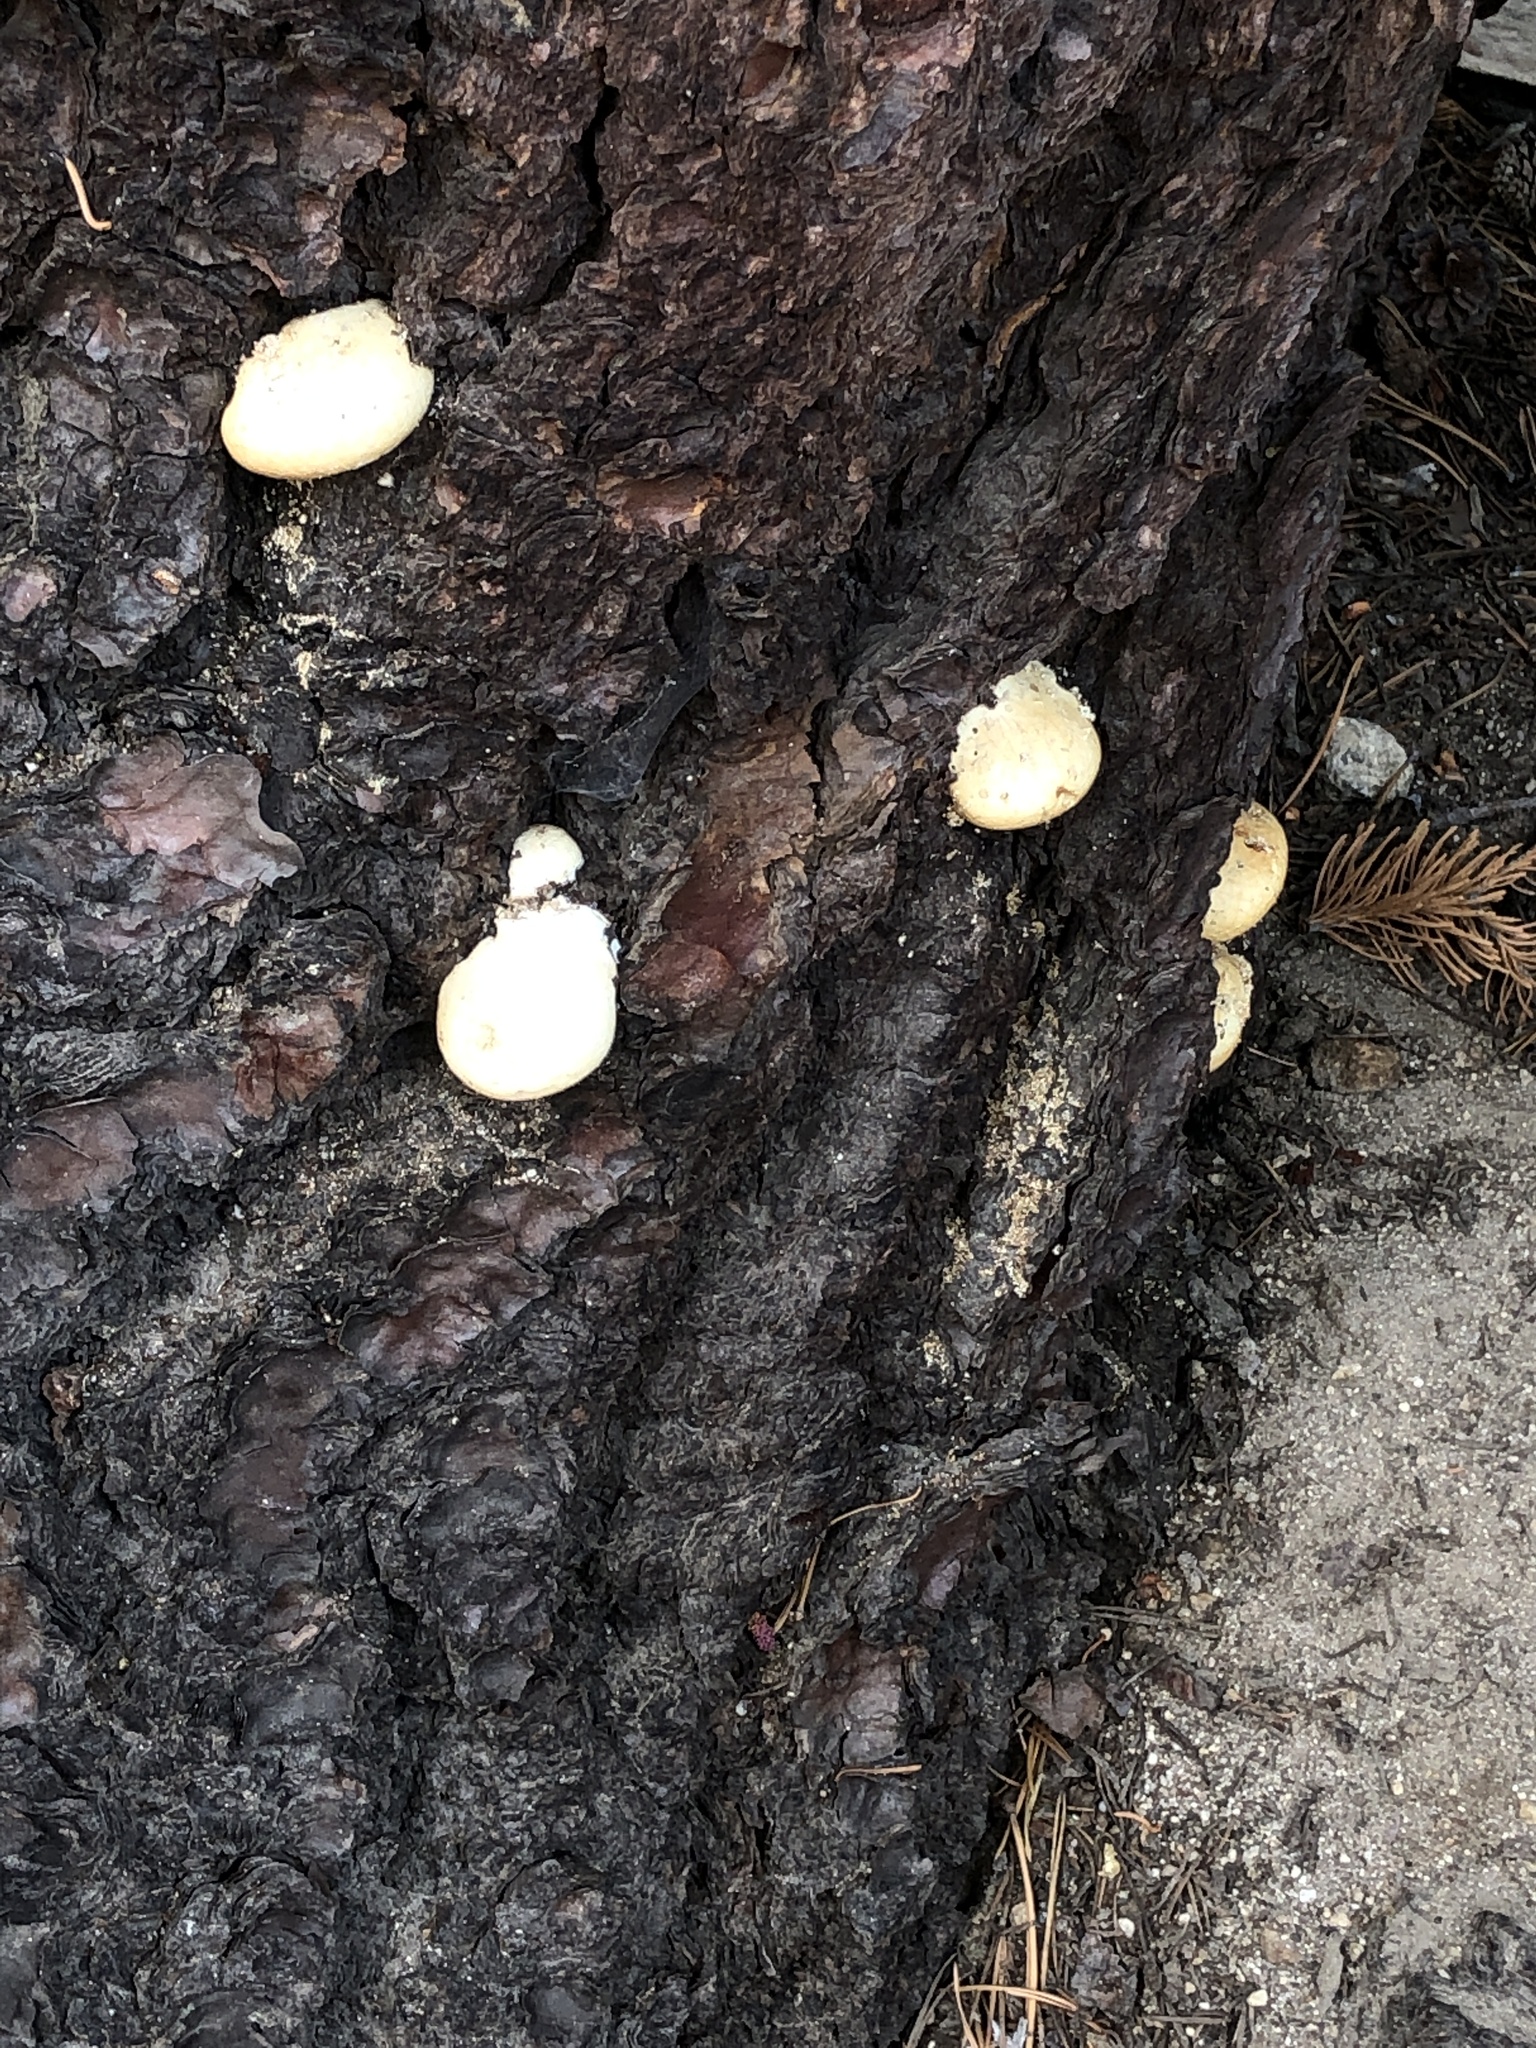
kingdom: Fungi
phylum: Basidiomycota
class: Agaricomycetes
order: Polyporales
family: Polyporaceae
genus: Cryptoporus
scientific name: Cryptoporus volvatus
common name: Veiled polypore
